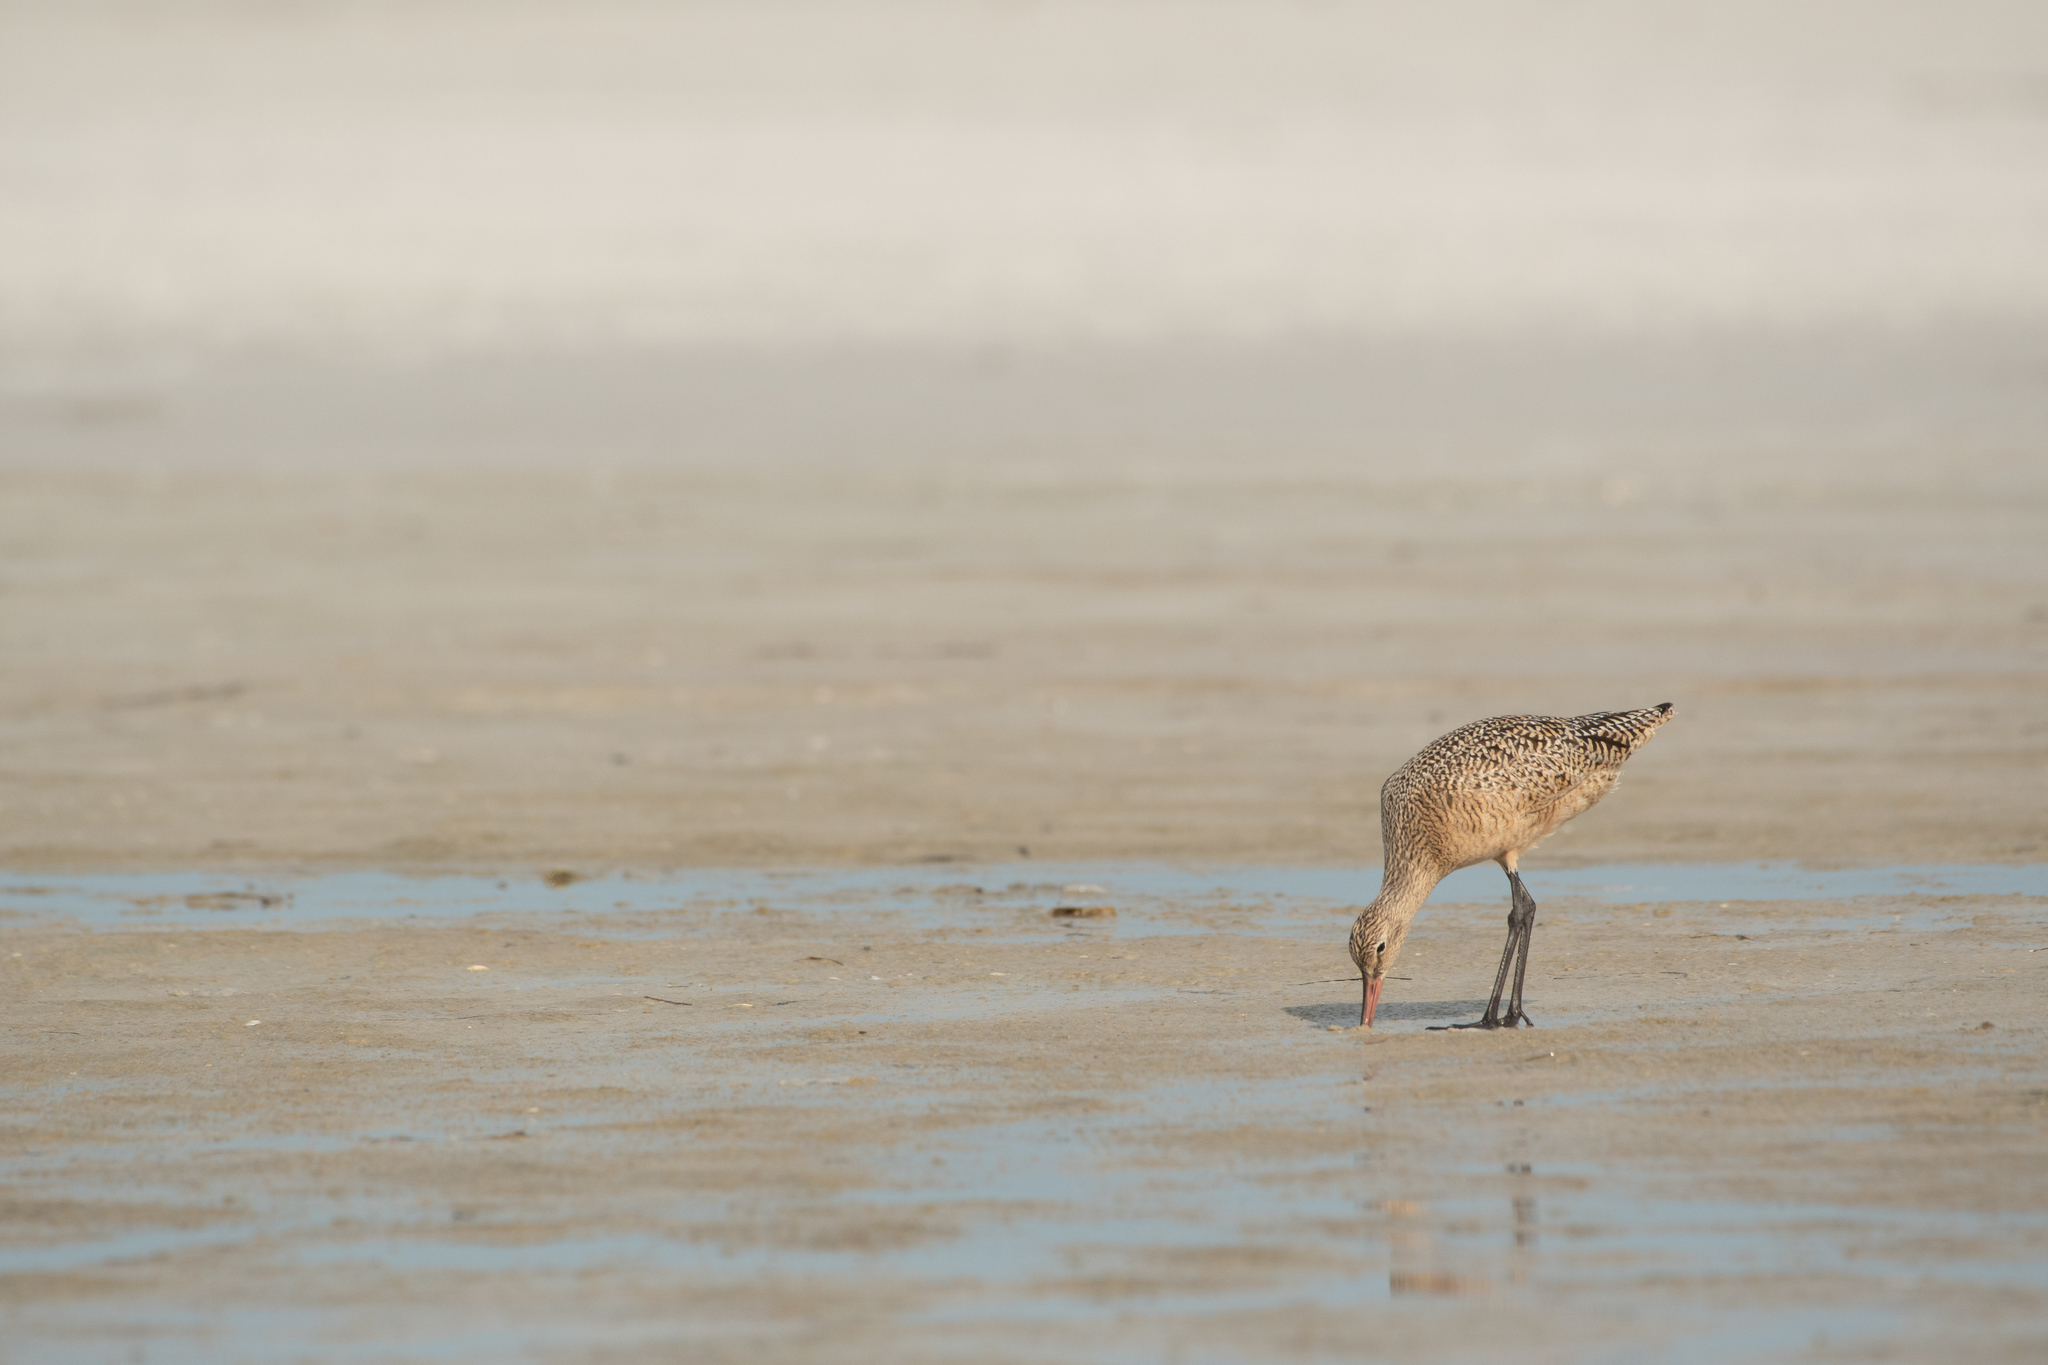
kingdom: Animalia
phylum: Chordata
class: Aves
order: Charadriiformes
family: Scolopacidae
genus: Limosa
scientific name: Limosa fedoa
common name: Marbled godwit
